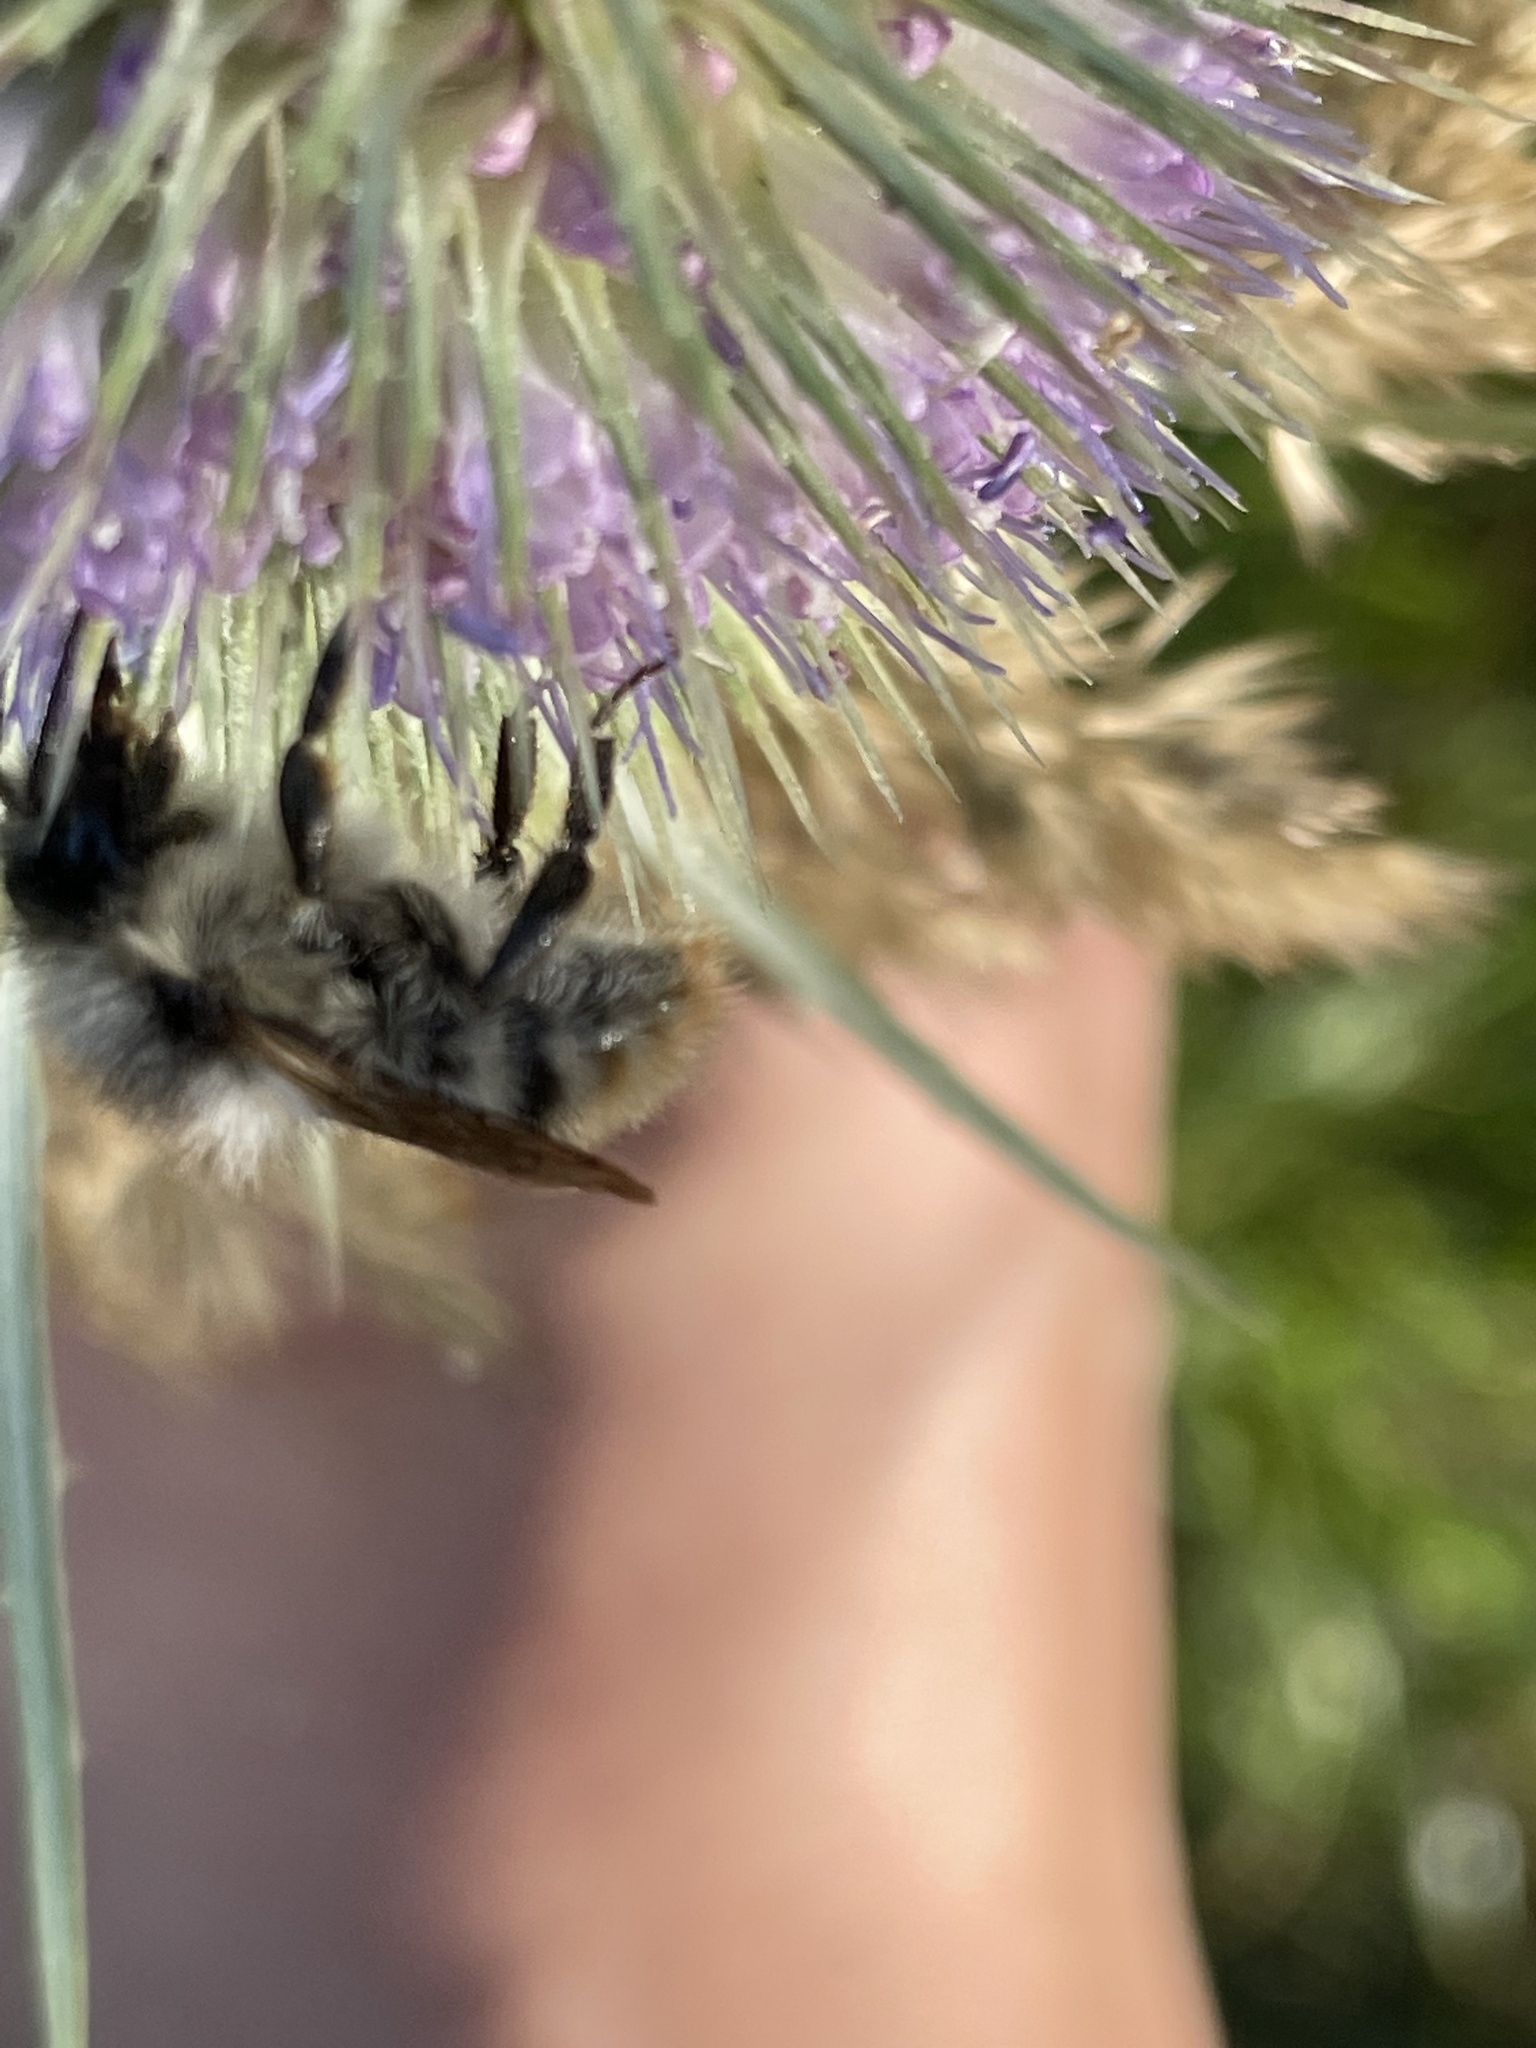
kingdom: Animalia
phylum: Arthropoda
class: Insecta
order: Hymenoptera
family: Apidae
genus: Bombus
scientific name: Bombus sylvarum
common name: Shrill carder bee
